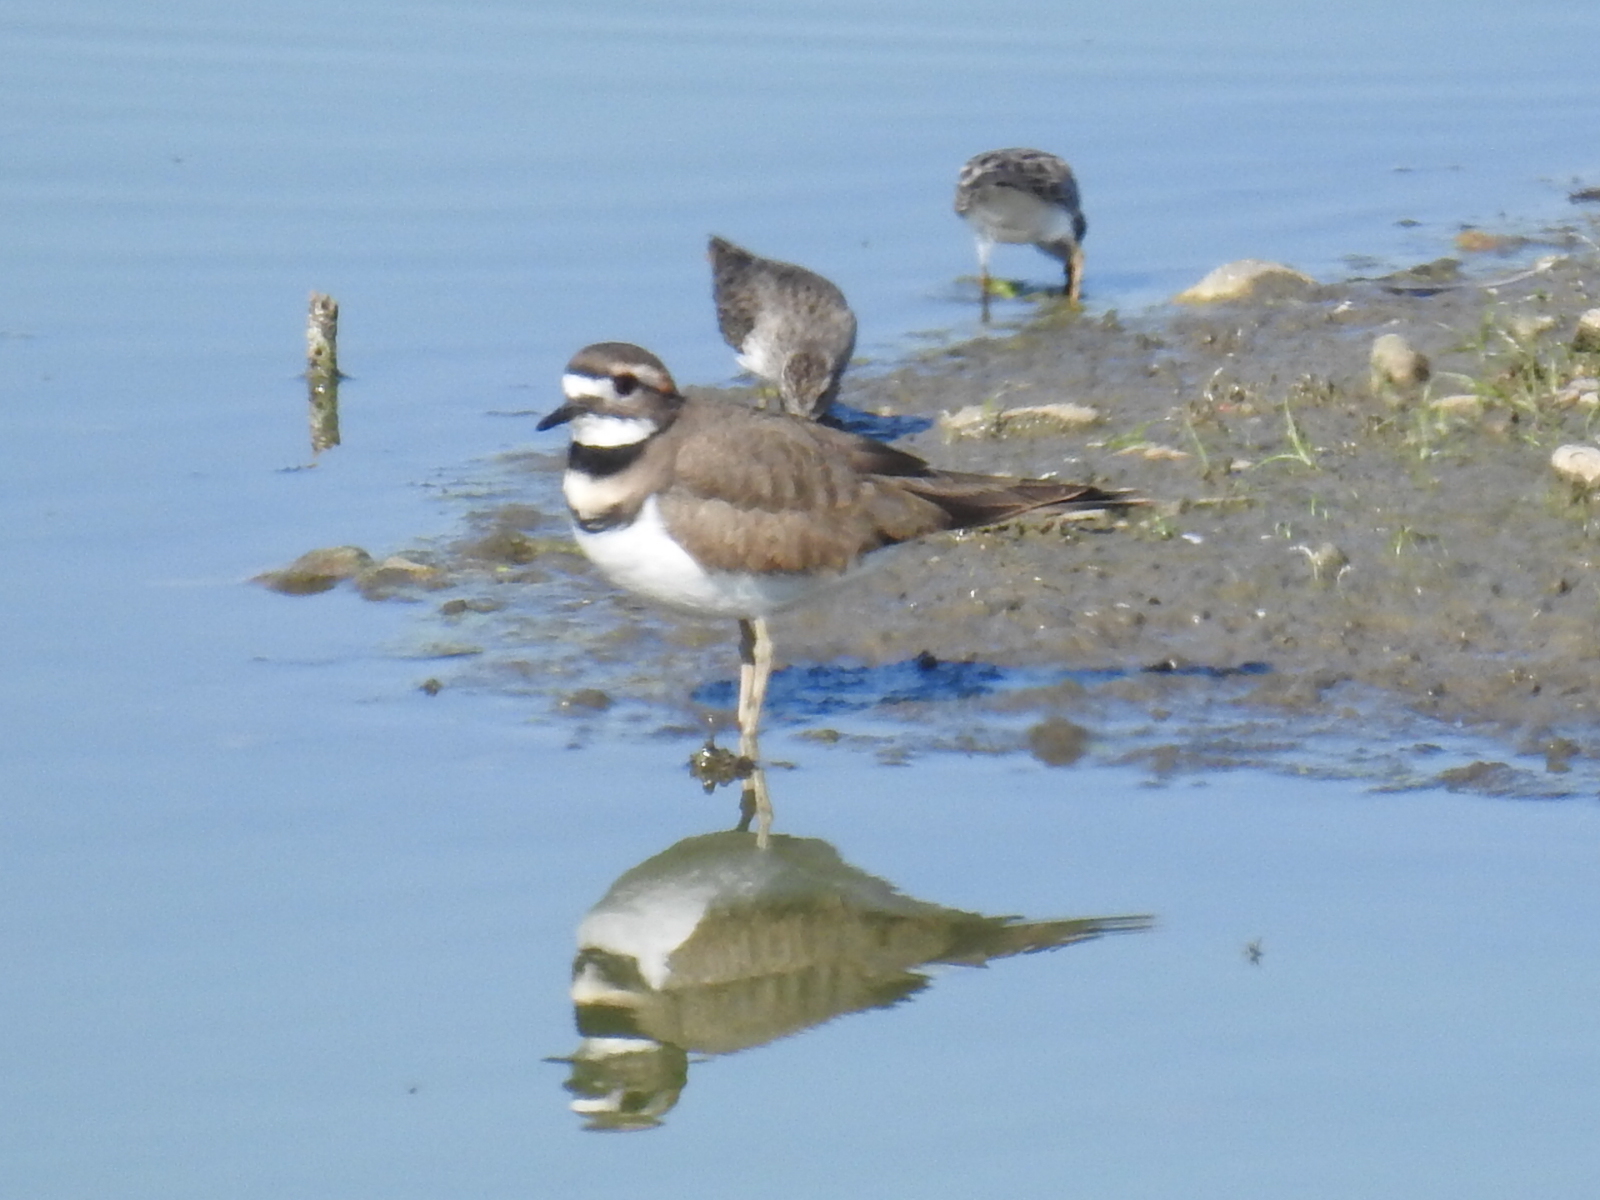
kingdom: Animalia
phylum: Chordata
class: Aves
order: Charadriiformes
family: Charadriidae
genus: Charadrius
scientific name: Charadrius vociferus
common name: Killdeer
